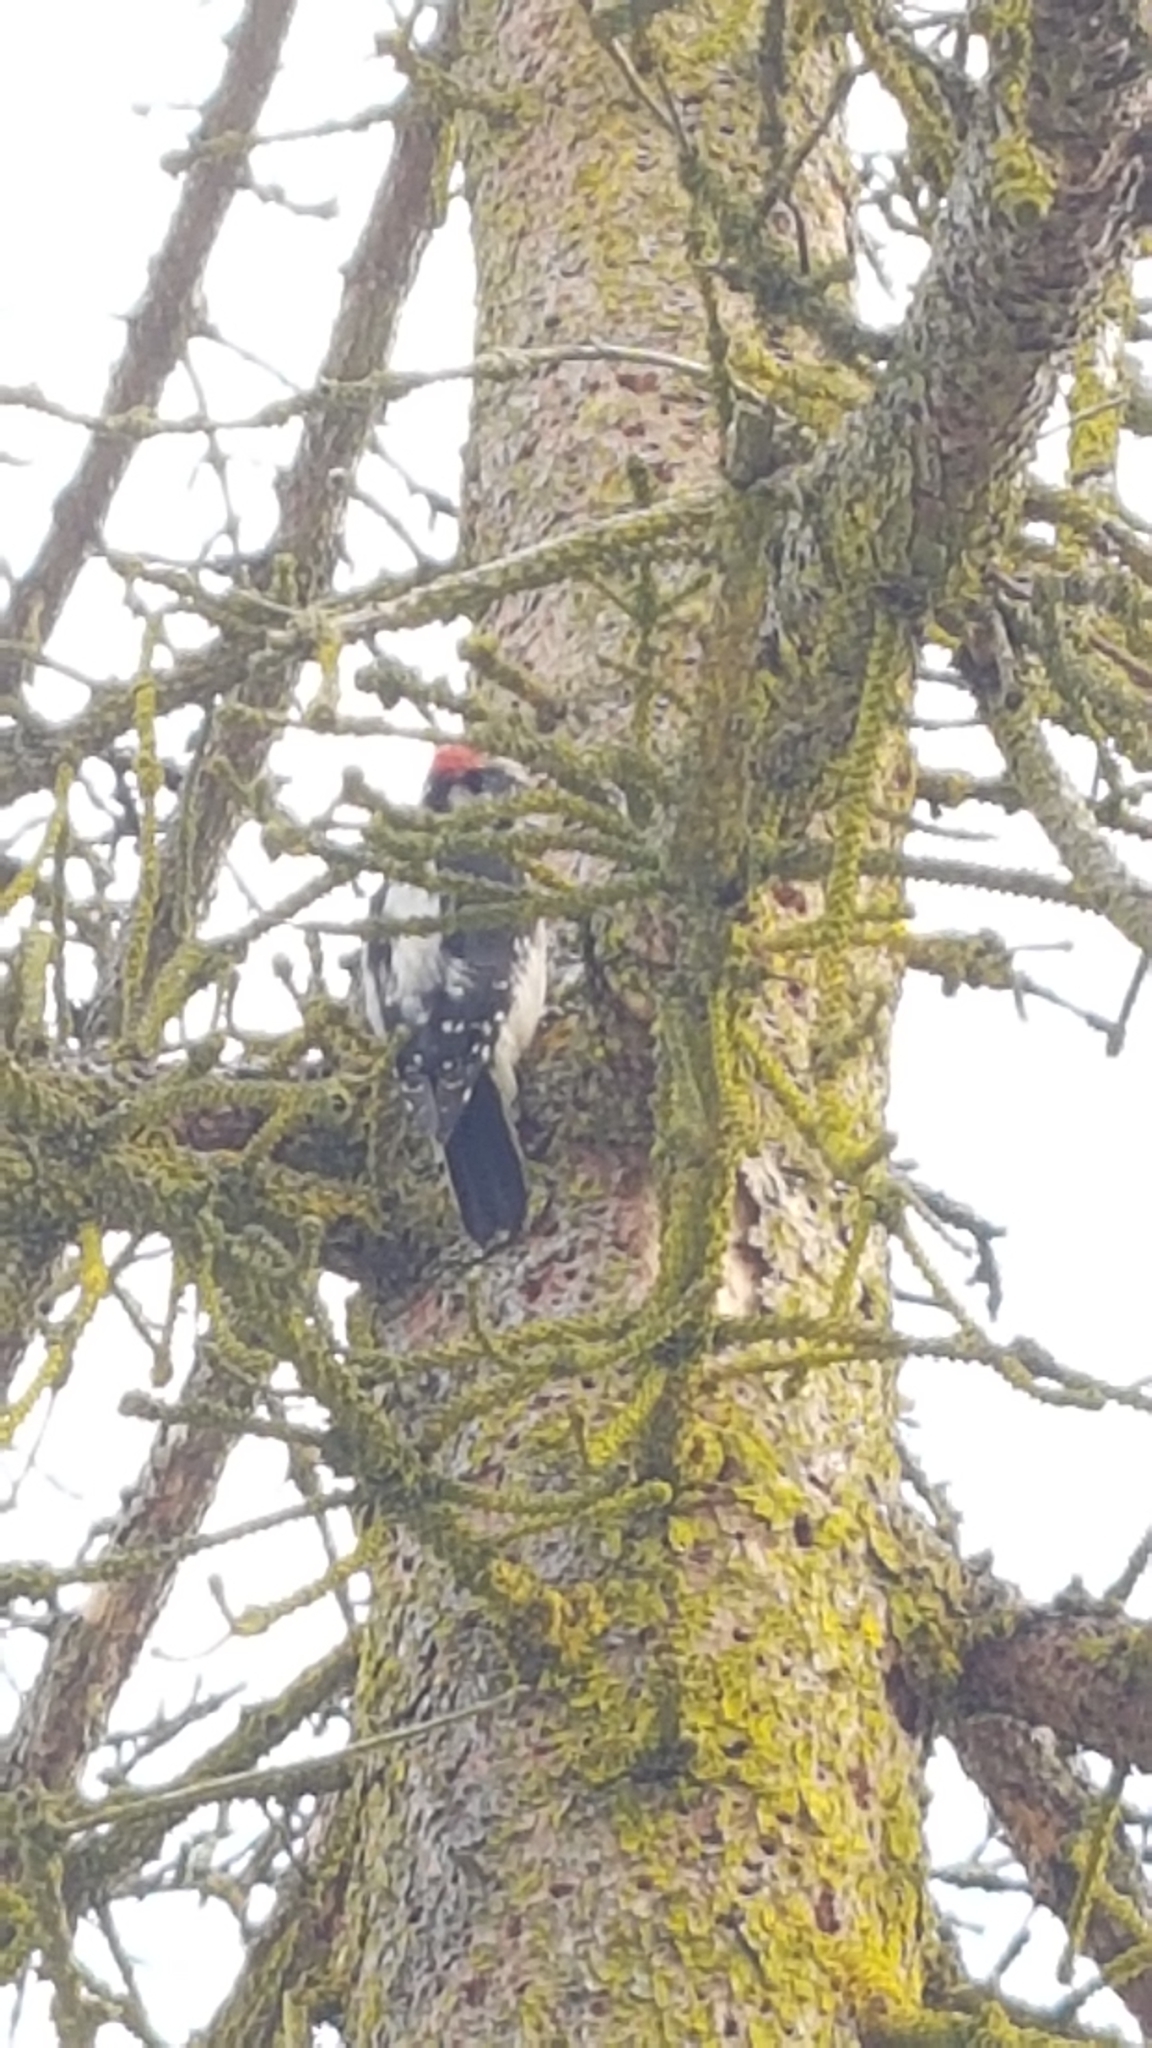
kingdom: Animalia
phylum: Chordata
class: Aves
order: Piciformes
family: Picidae
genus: Dryobates
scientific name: Dryobates pubescens
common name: Downy woodpecker
